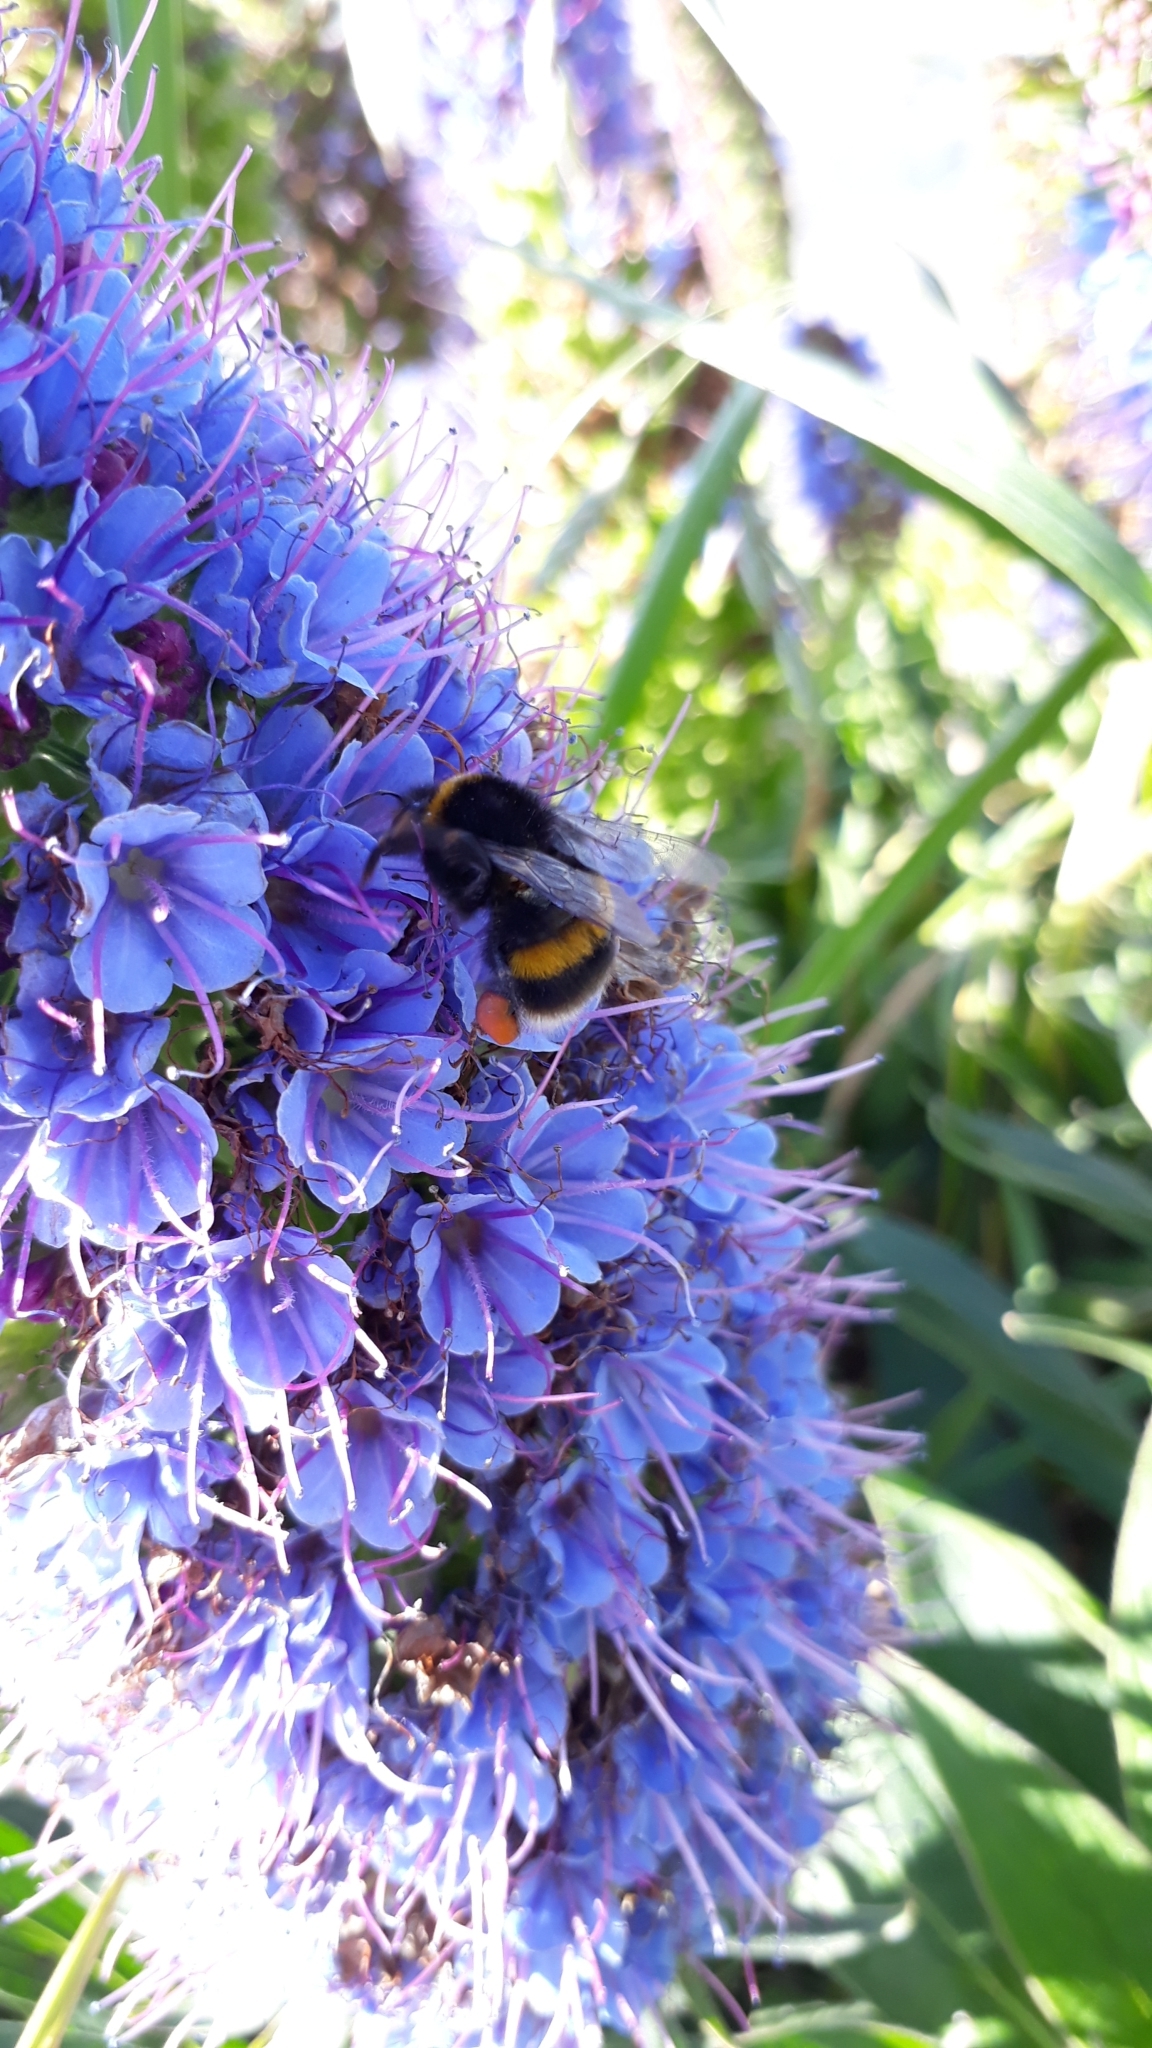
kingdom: Animalia
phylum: Arthropoda
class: Insecta
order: Hymenoptera
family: Apidae
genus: Bombus
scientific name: Bombus terrestris
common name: Buff-tailed bumblebee
